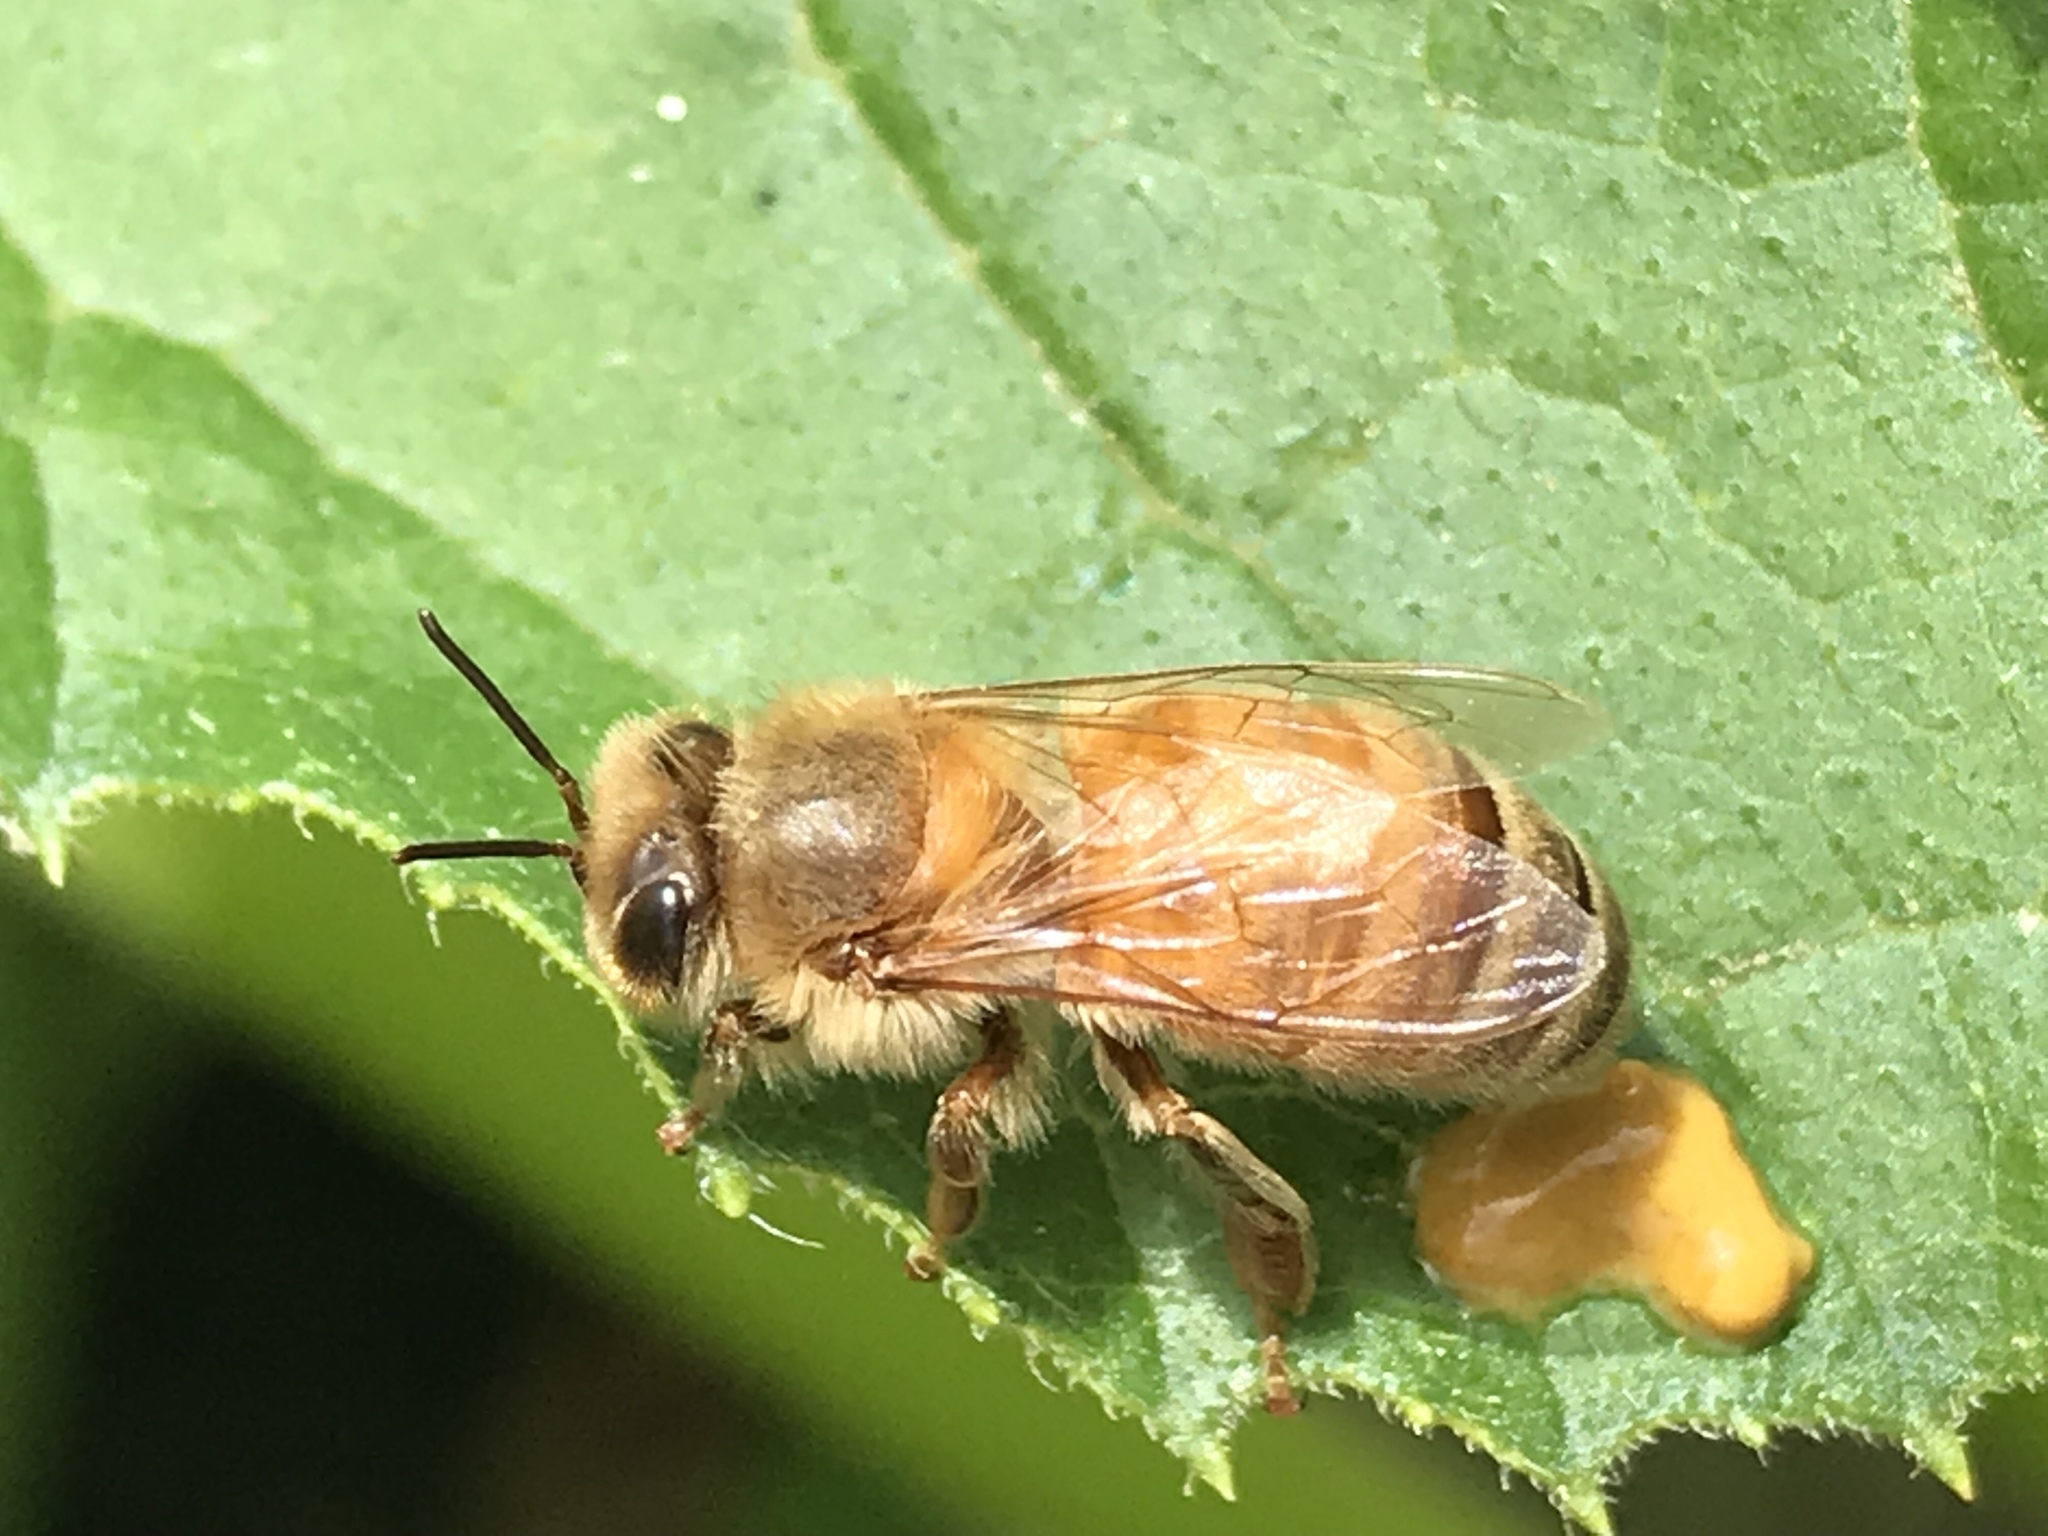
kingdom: Animalia
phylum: Arthropoda
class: Insecta
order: Hymenoptera
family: Apidae
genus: Apis
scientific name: Apis mellifera
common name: Honey bee
